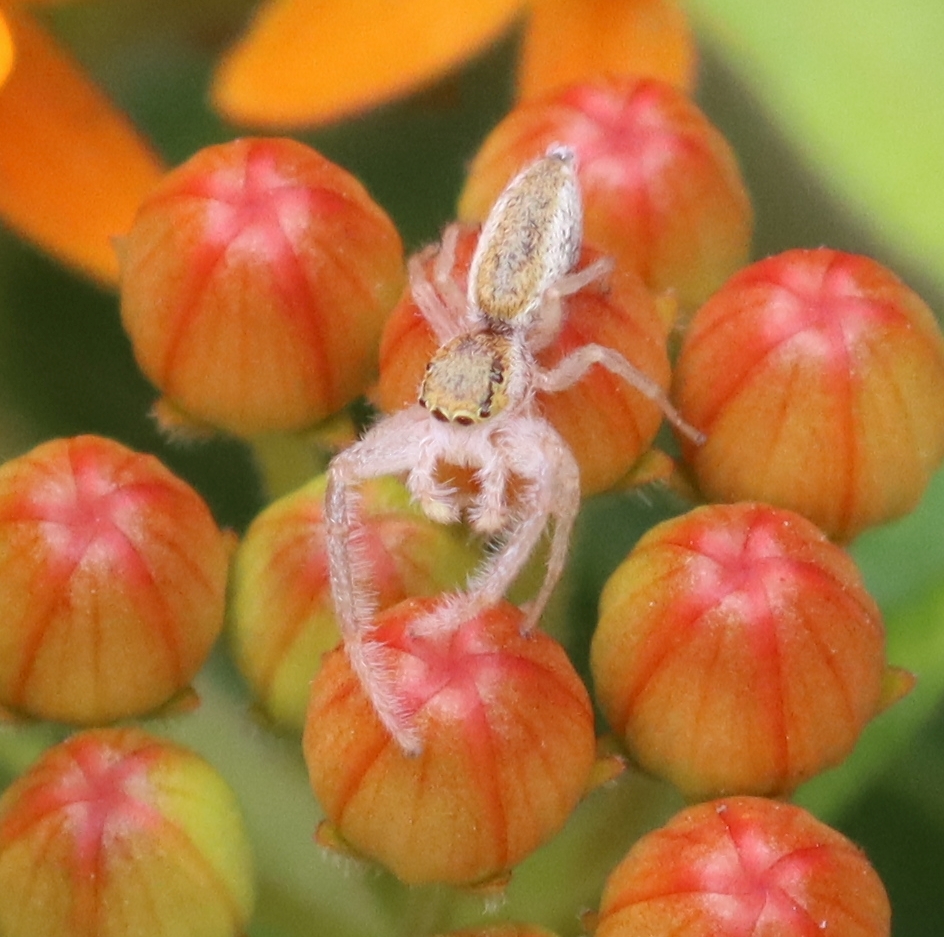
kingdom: Animalia
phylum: Arthropoda
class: Arachnida
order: Araneae
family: Salticidae
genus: Hentzia
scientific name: Hentzia mitrata
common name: White-jawed jumping spider
